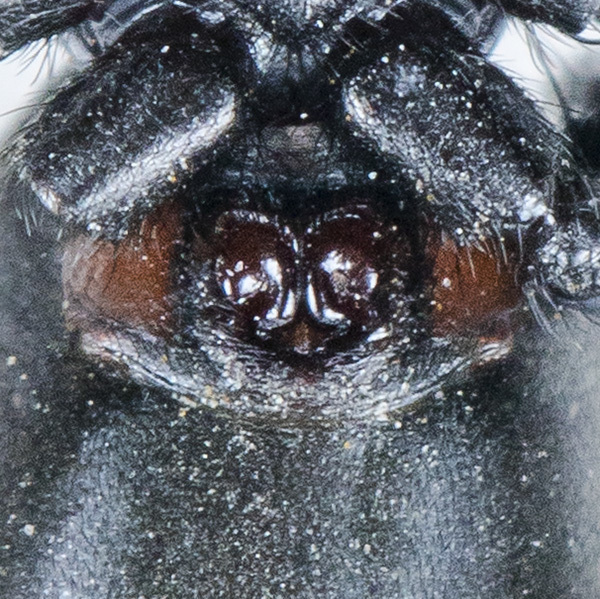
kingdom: Animalia
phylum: Arthropoda
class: Arachnida
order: Araneae
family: Gnaphosidae
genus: Drassyllus
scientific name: Drassyllus praeficus
